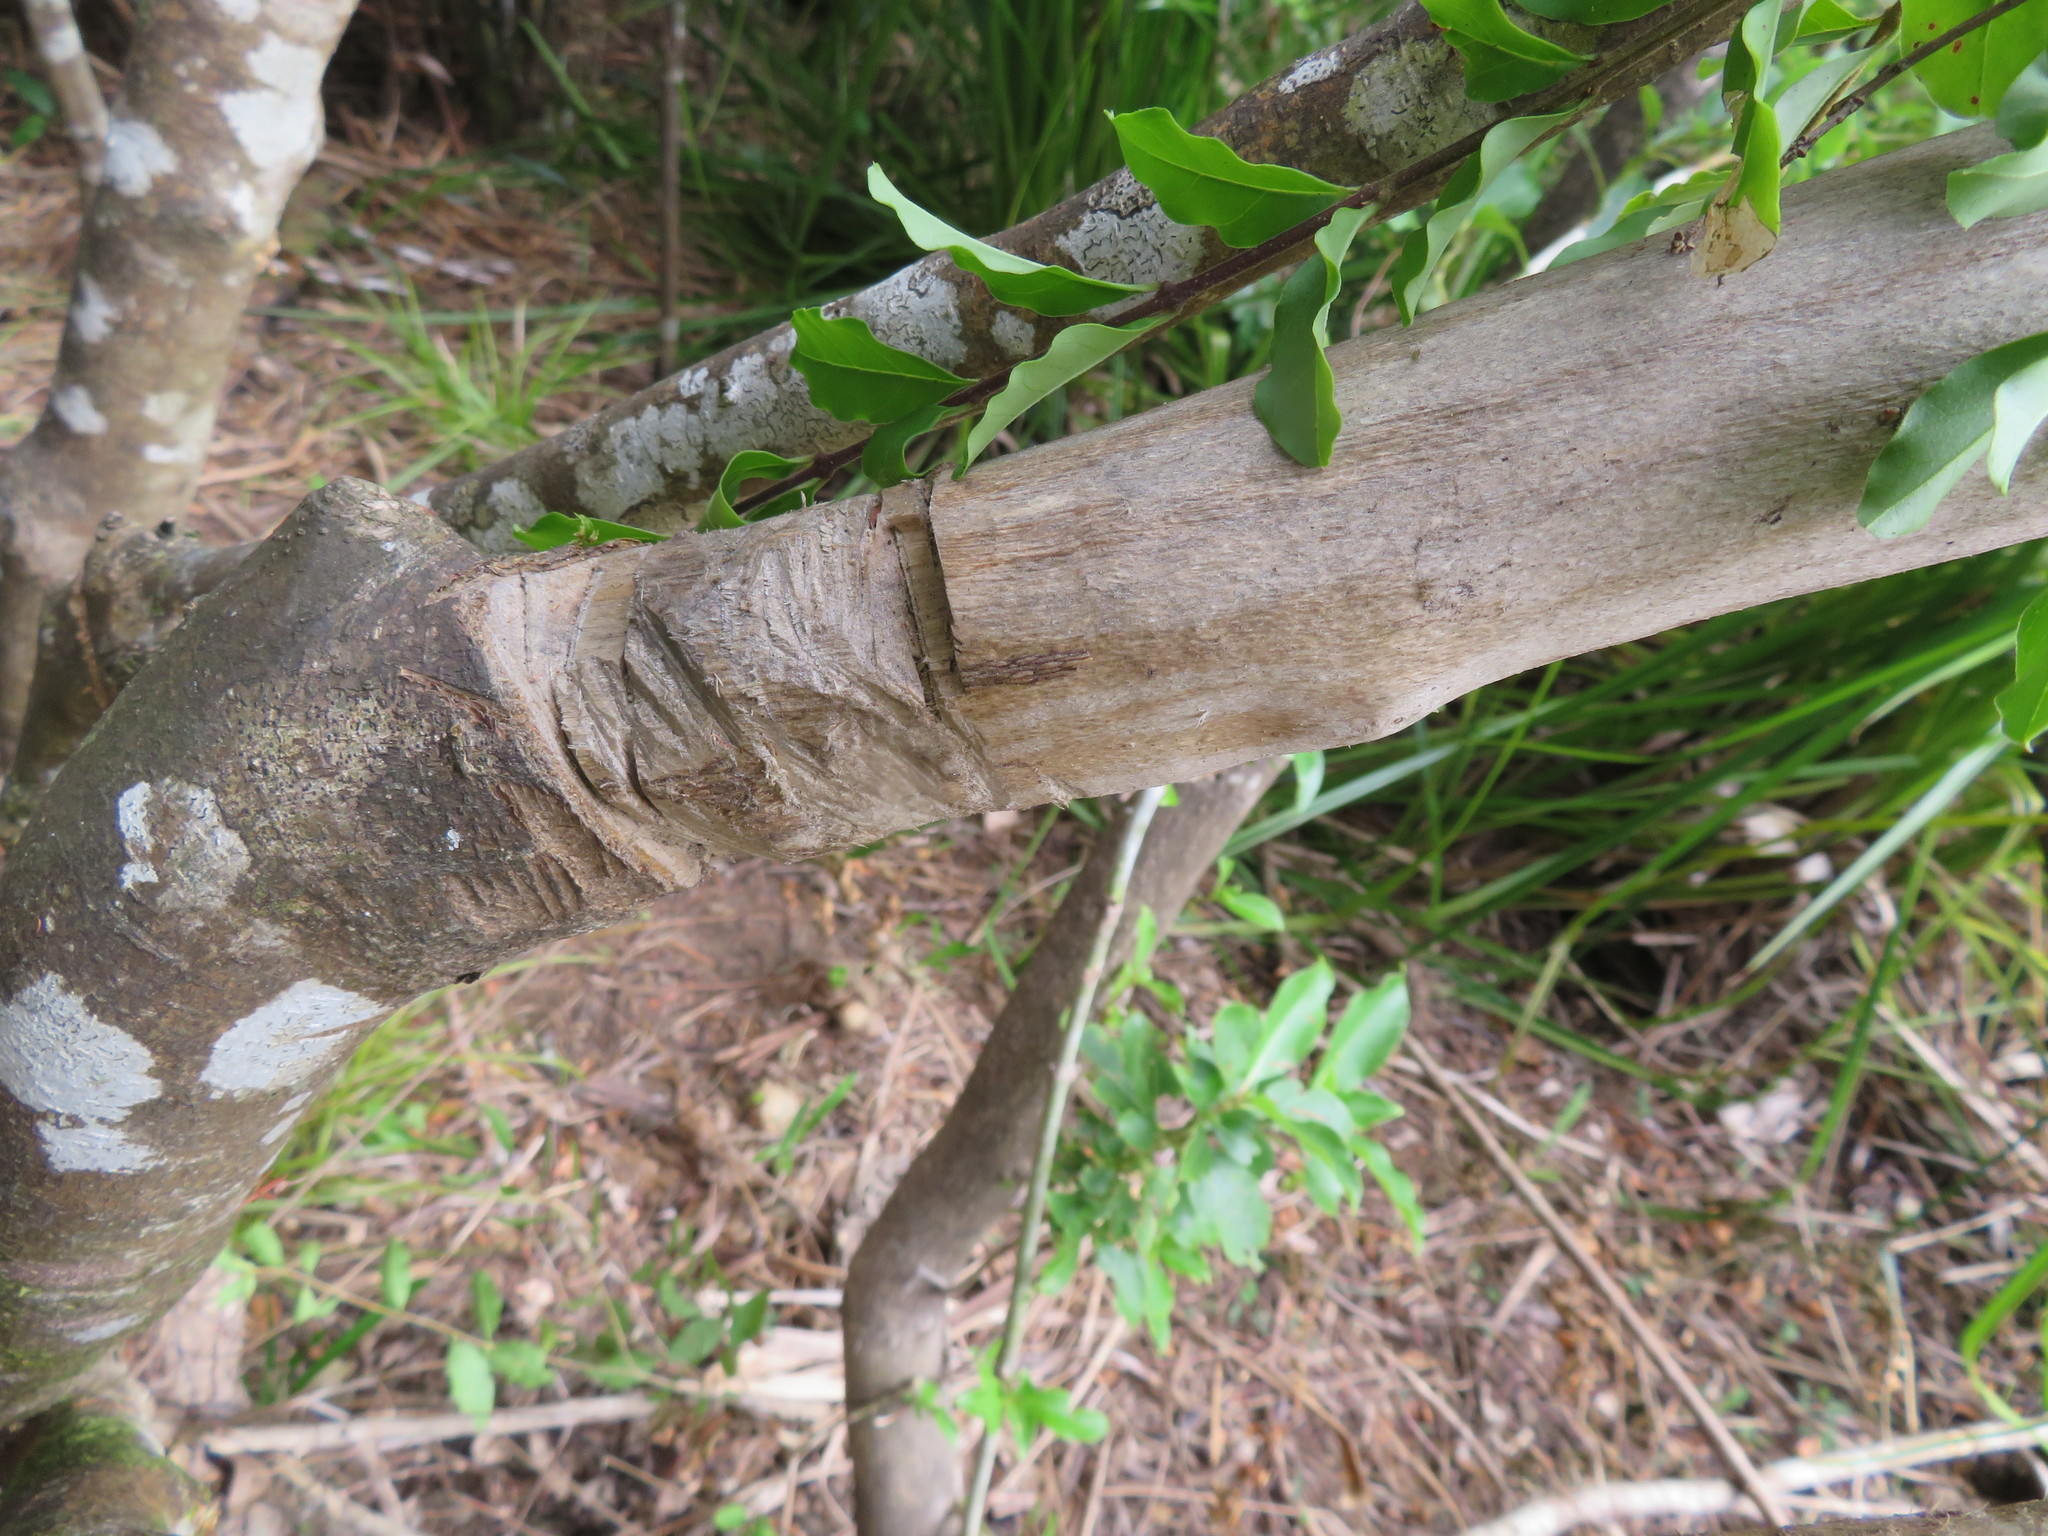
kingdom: Plantae
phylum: Tracheophyta
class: Magnoliopsida
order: Lamiales
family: Oleaceae
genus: Ligustrum
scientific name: Ligustrum sinense
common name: Chinese privet
